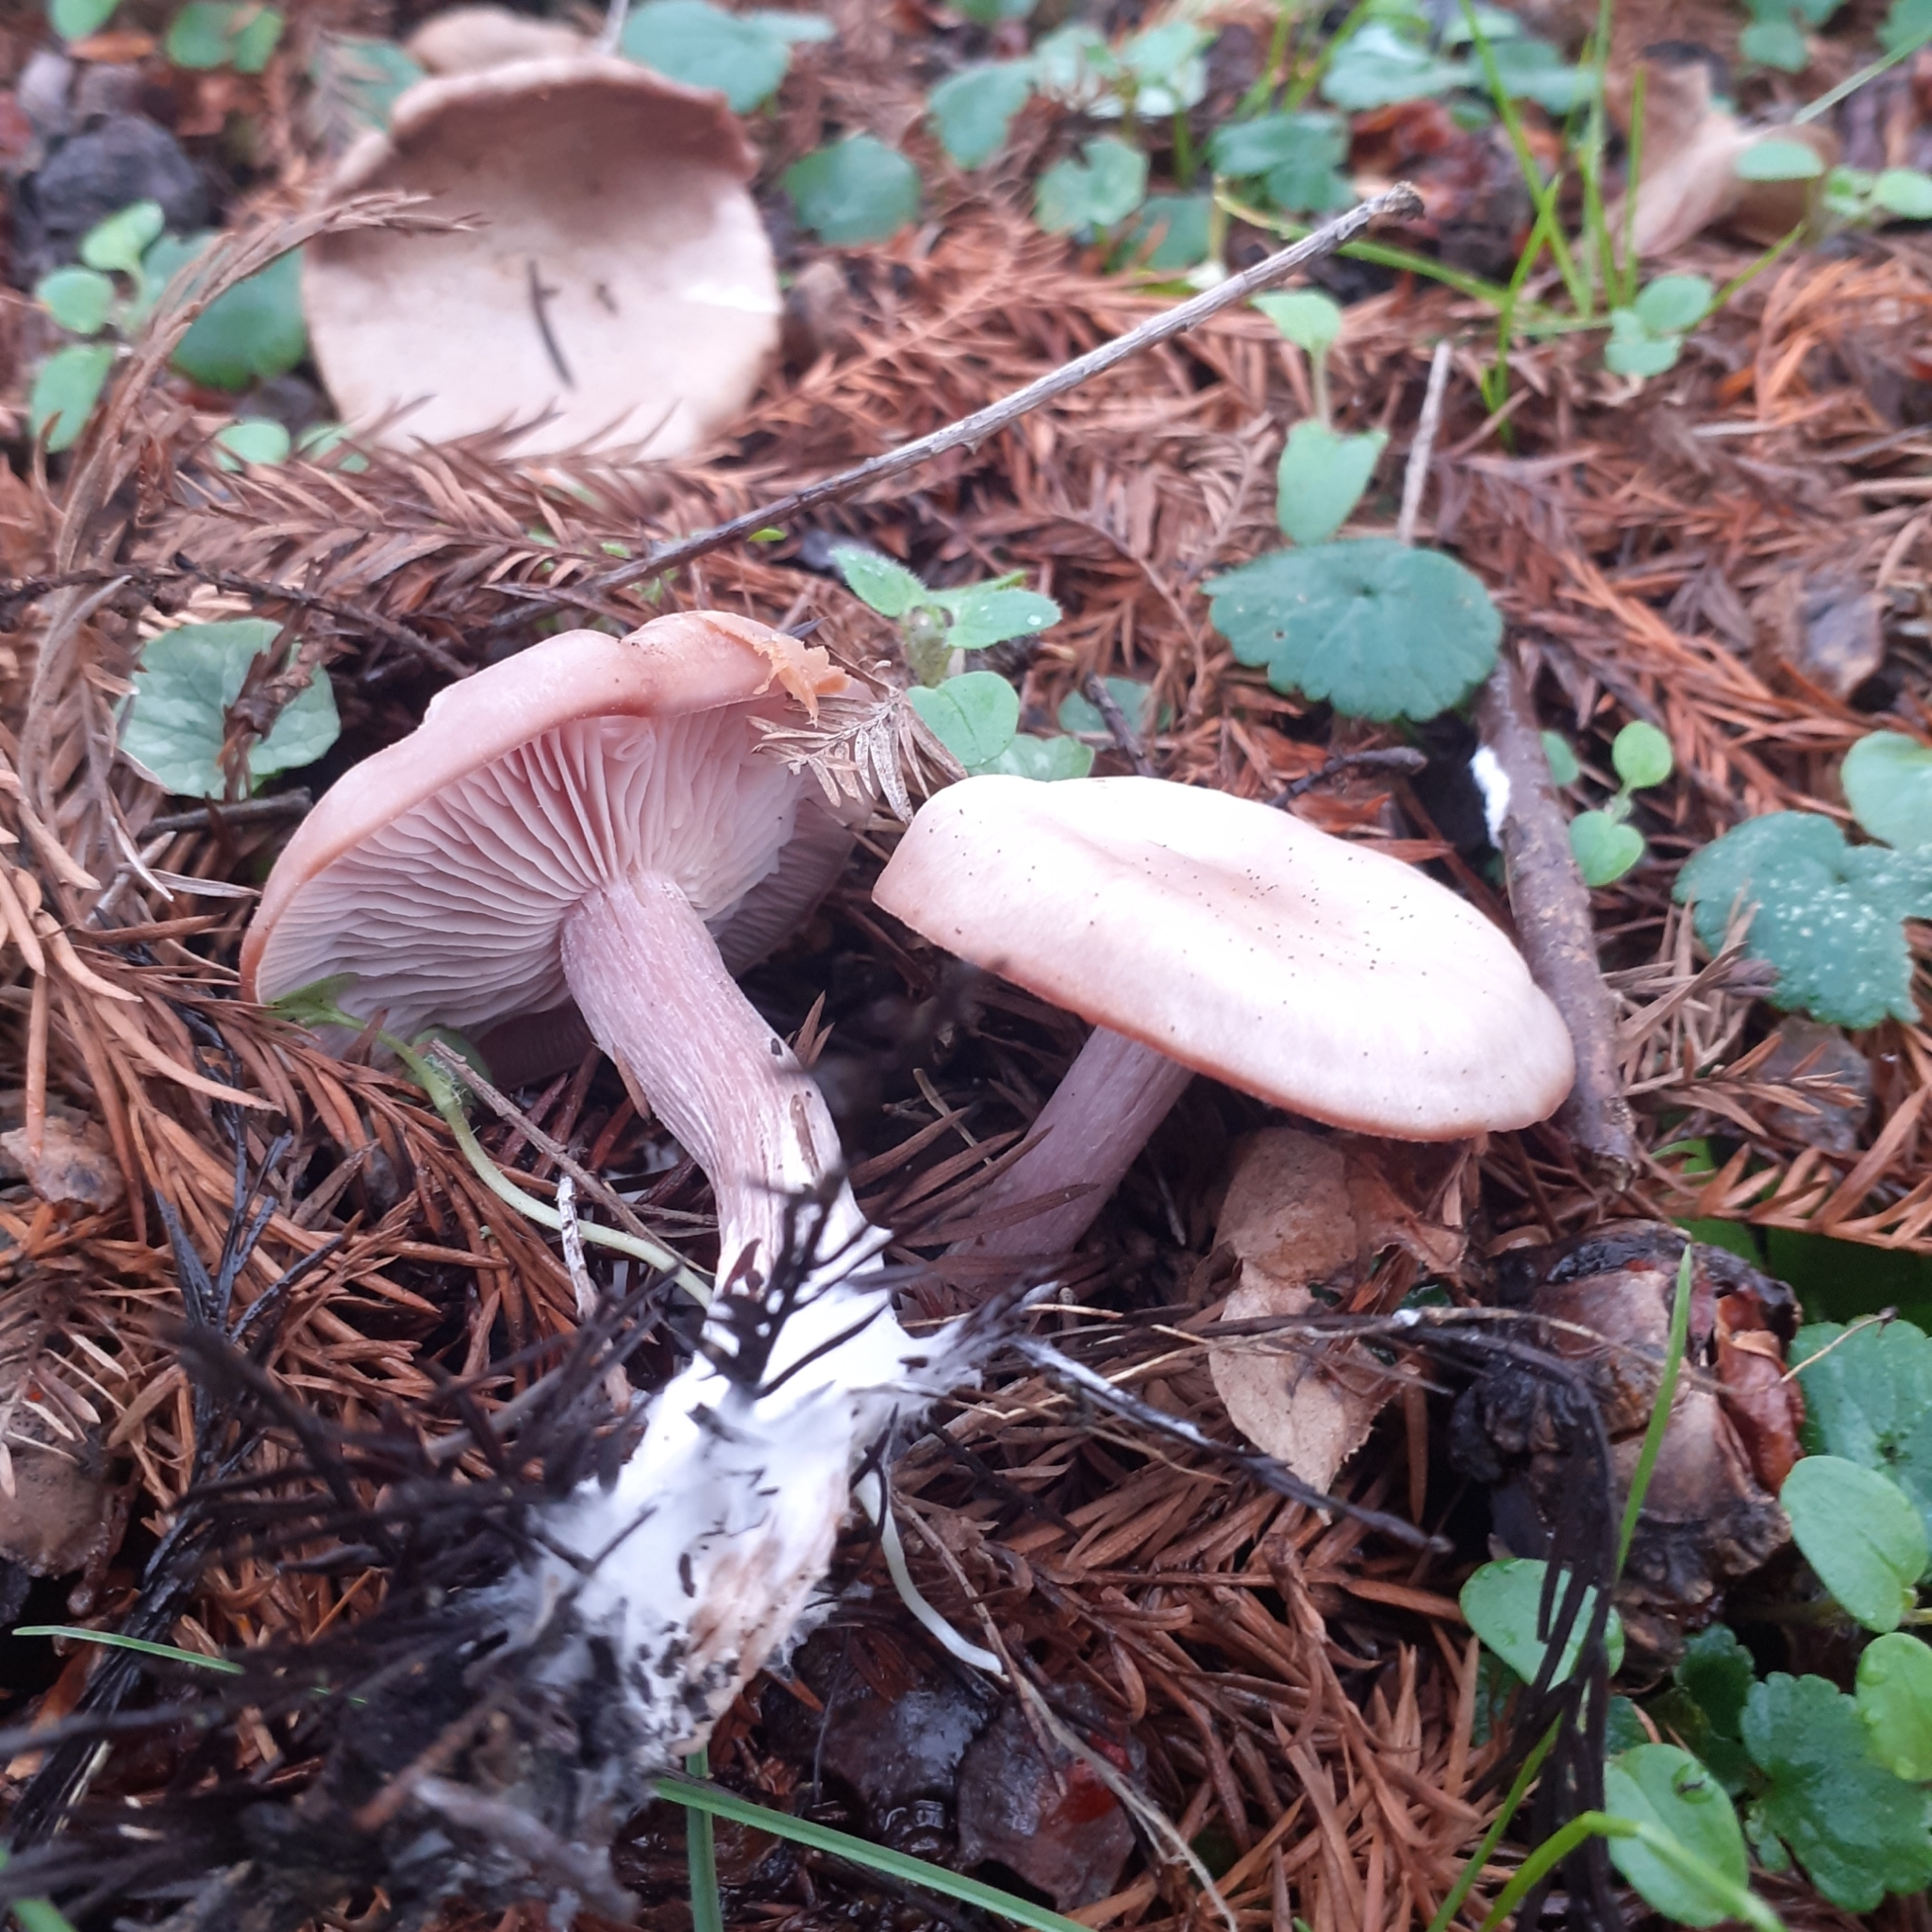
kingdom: Fungi
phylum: Basidiomycota
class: Agaricomycetes
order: Agaricales
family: Tricholomataceae
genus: Collybia
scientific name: Collybia
